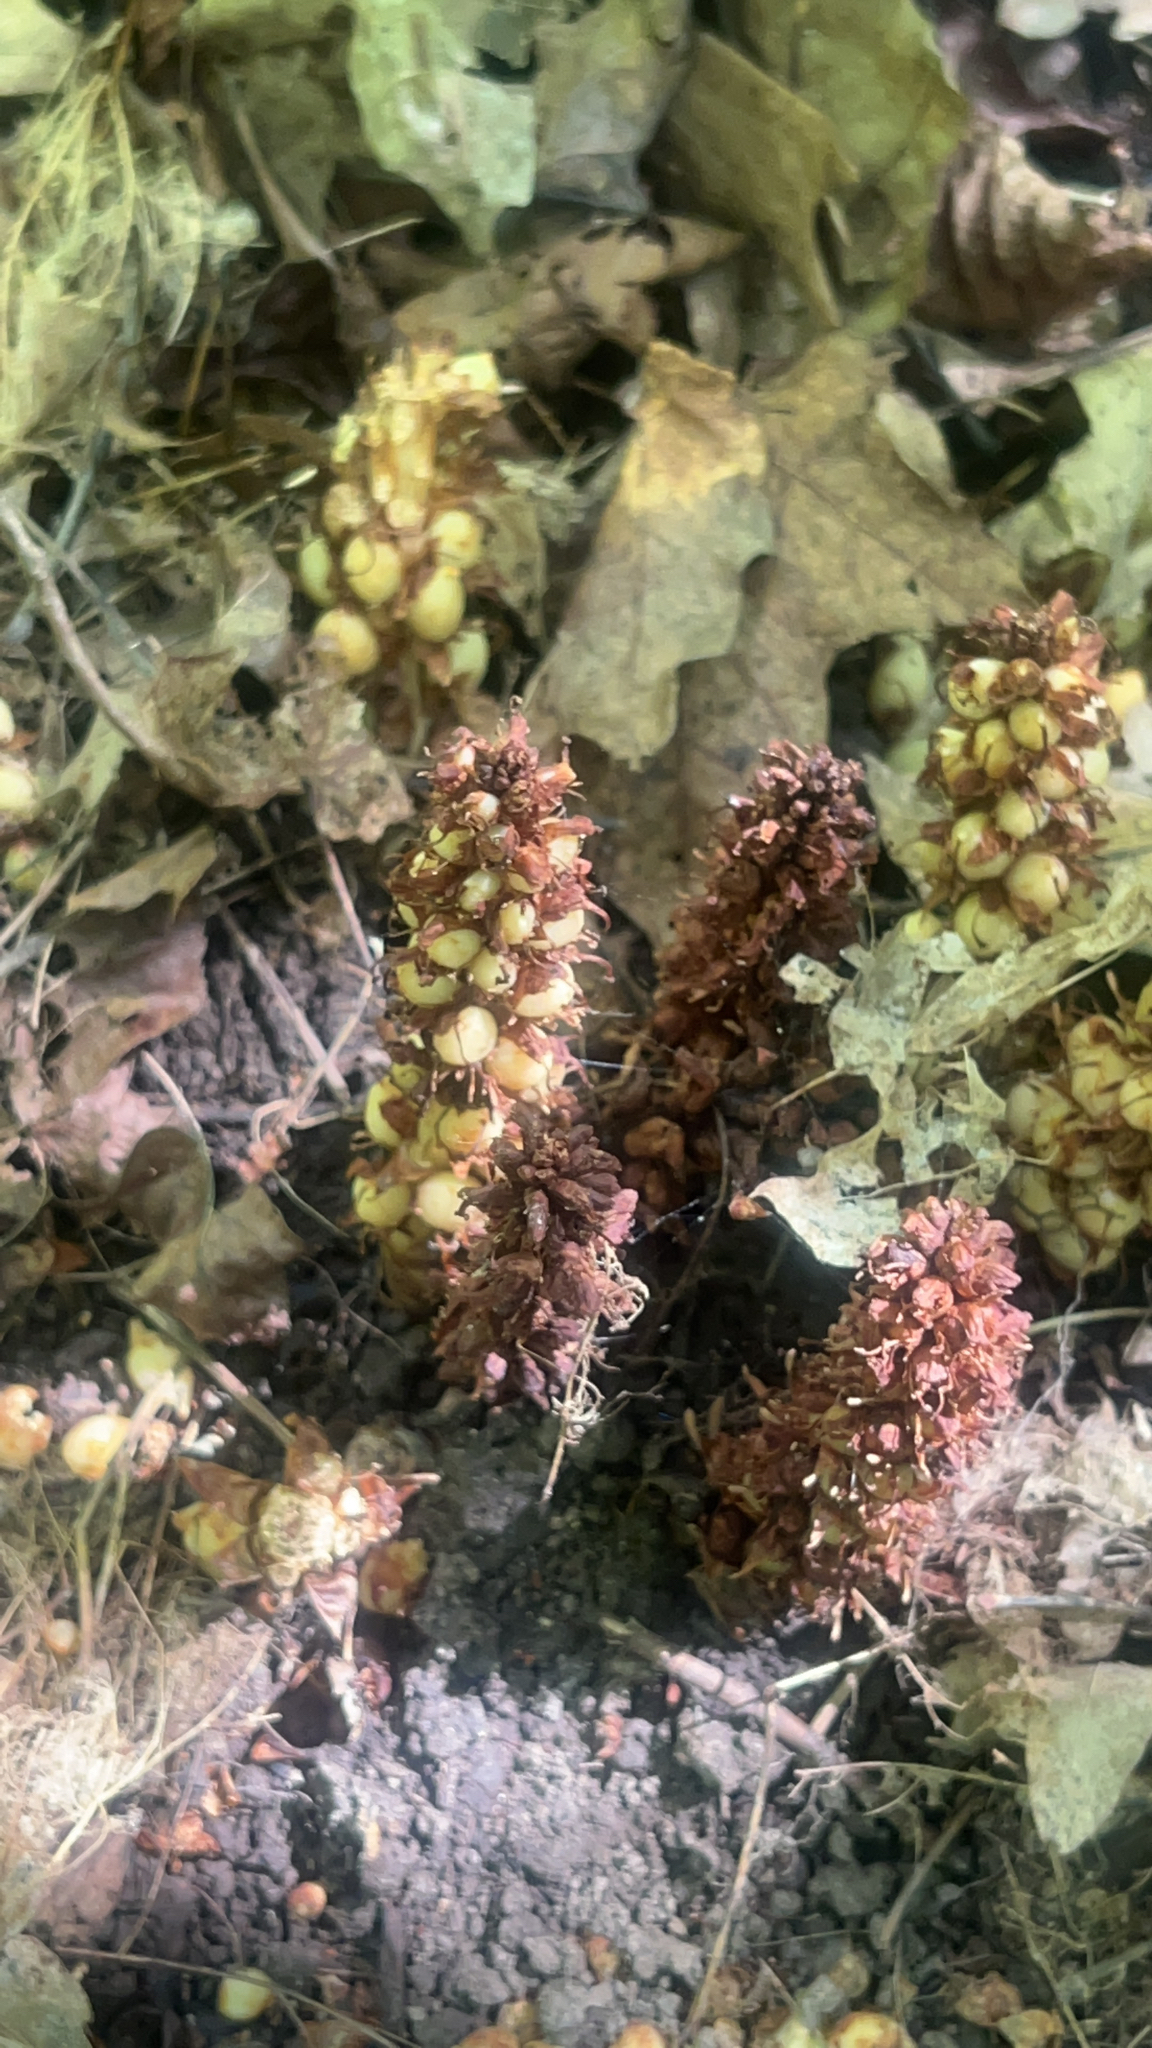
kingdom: Plantae
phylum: Tracheophyta
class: Magnoliopsida
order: Lamiales
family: Orobanchaceae
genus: Conopholis
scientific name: Conopholis americana
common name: American cancer-root
